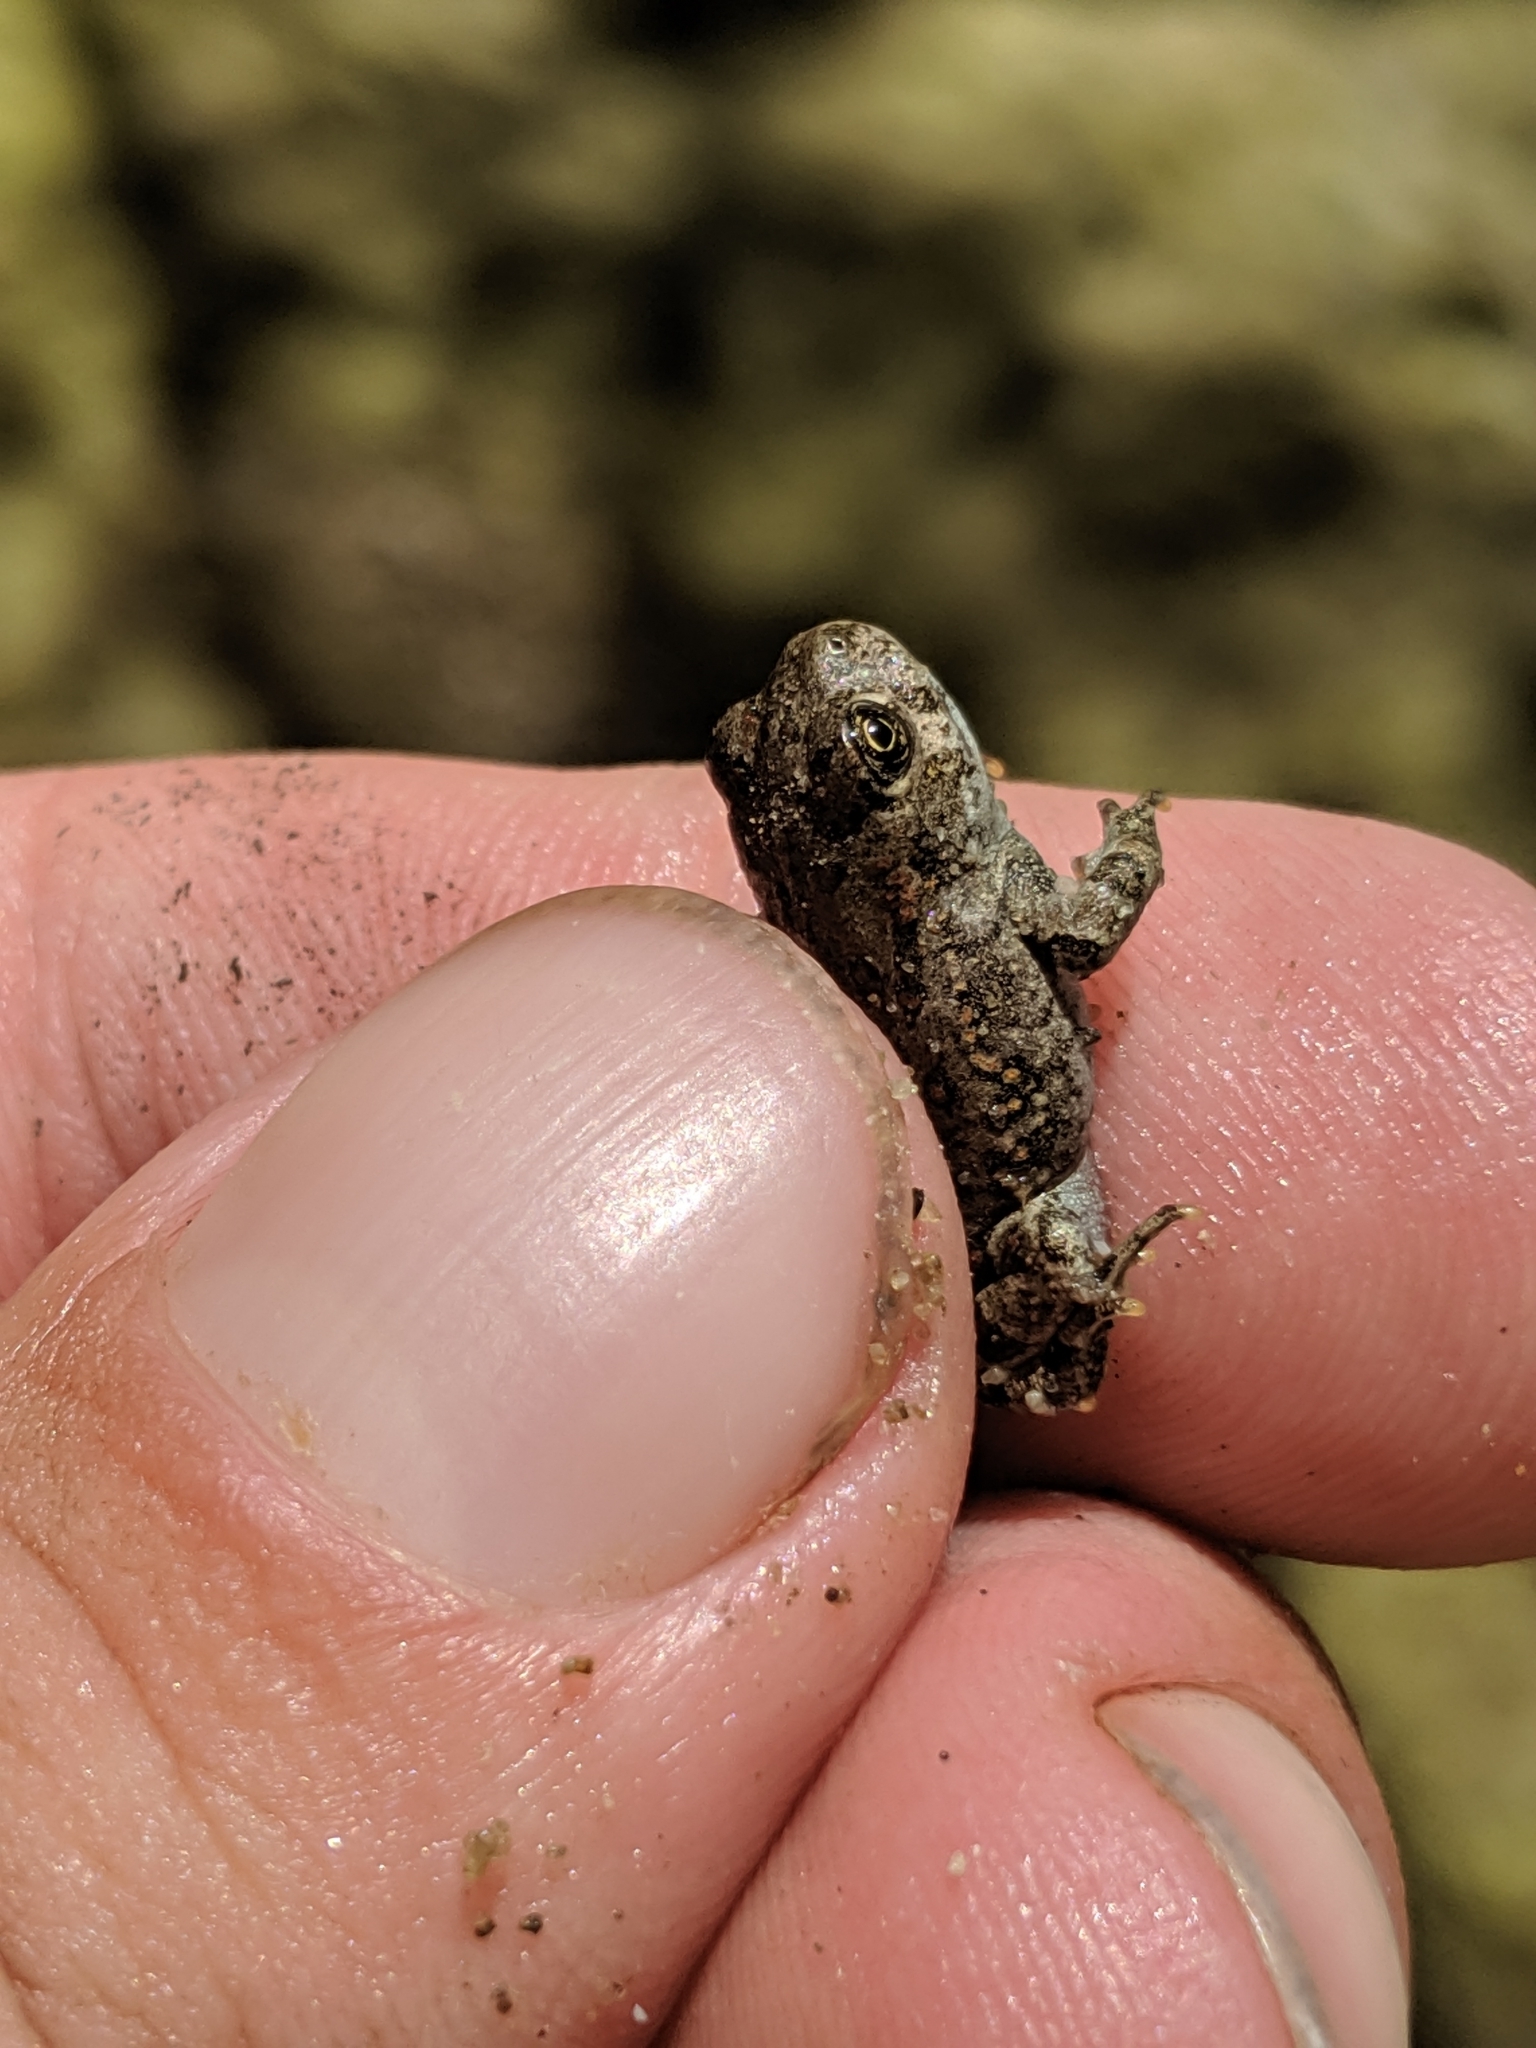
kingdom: Animalia
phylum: Chordata
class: Amphibia
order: Anura
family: Bufonidae
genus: Anaxyrus
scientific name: Anaxyrus boreas
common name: Western toad
